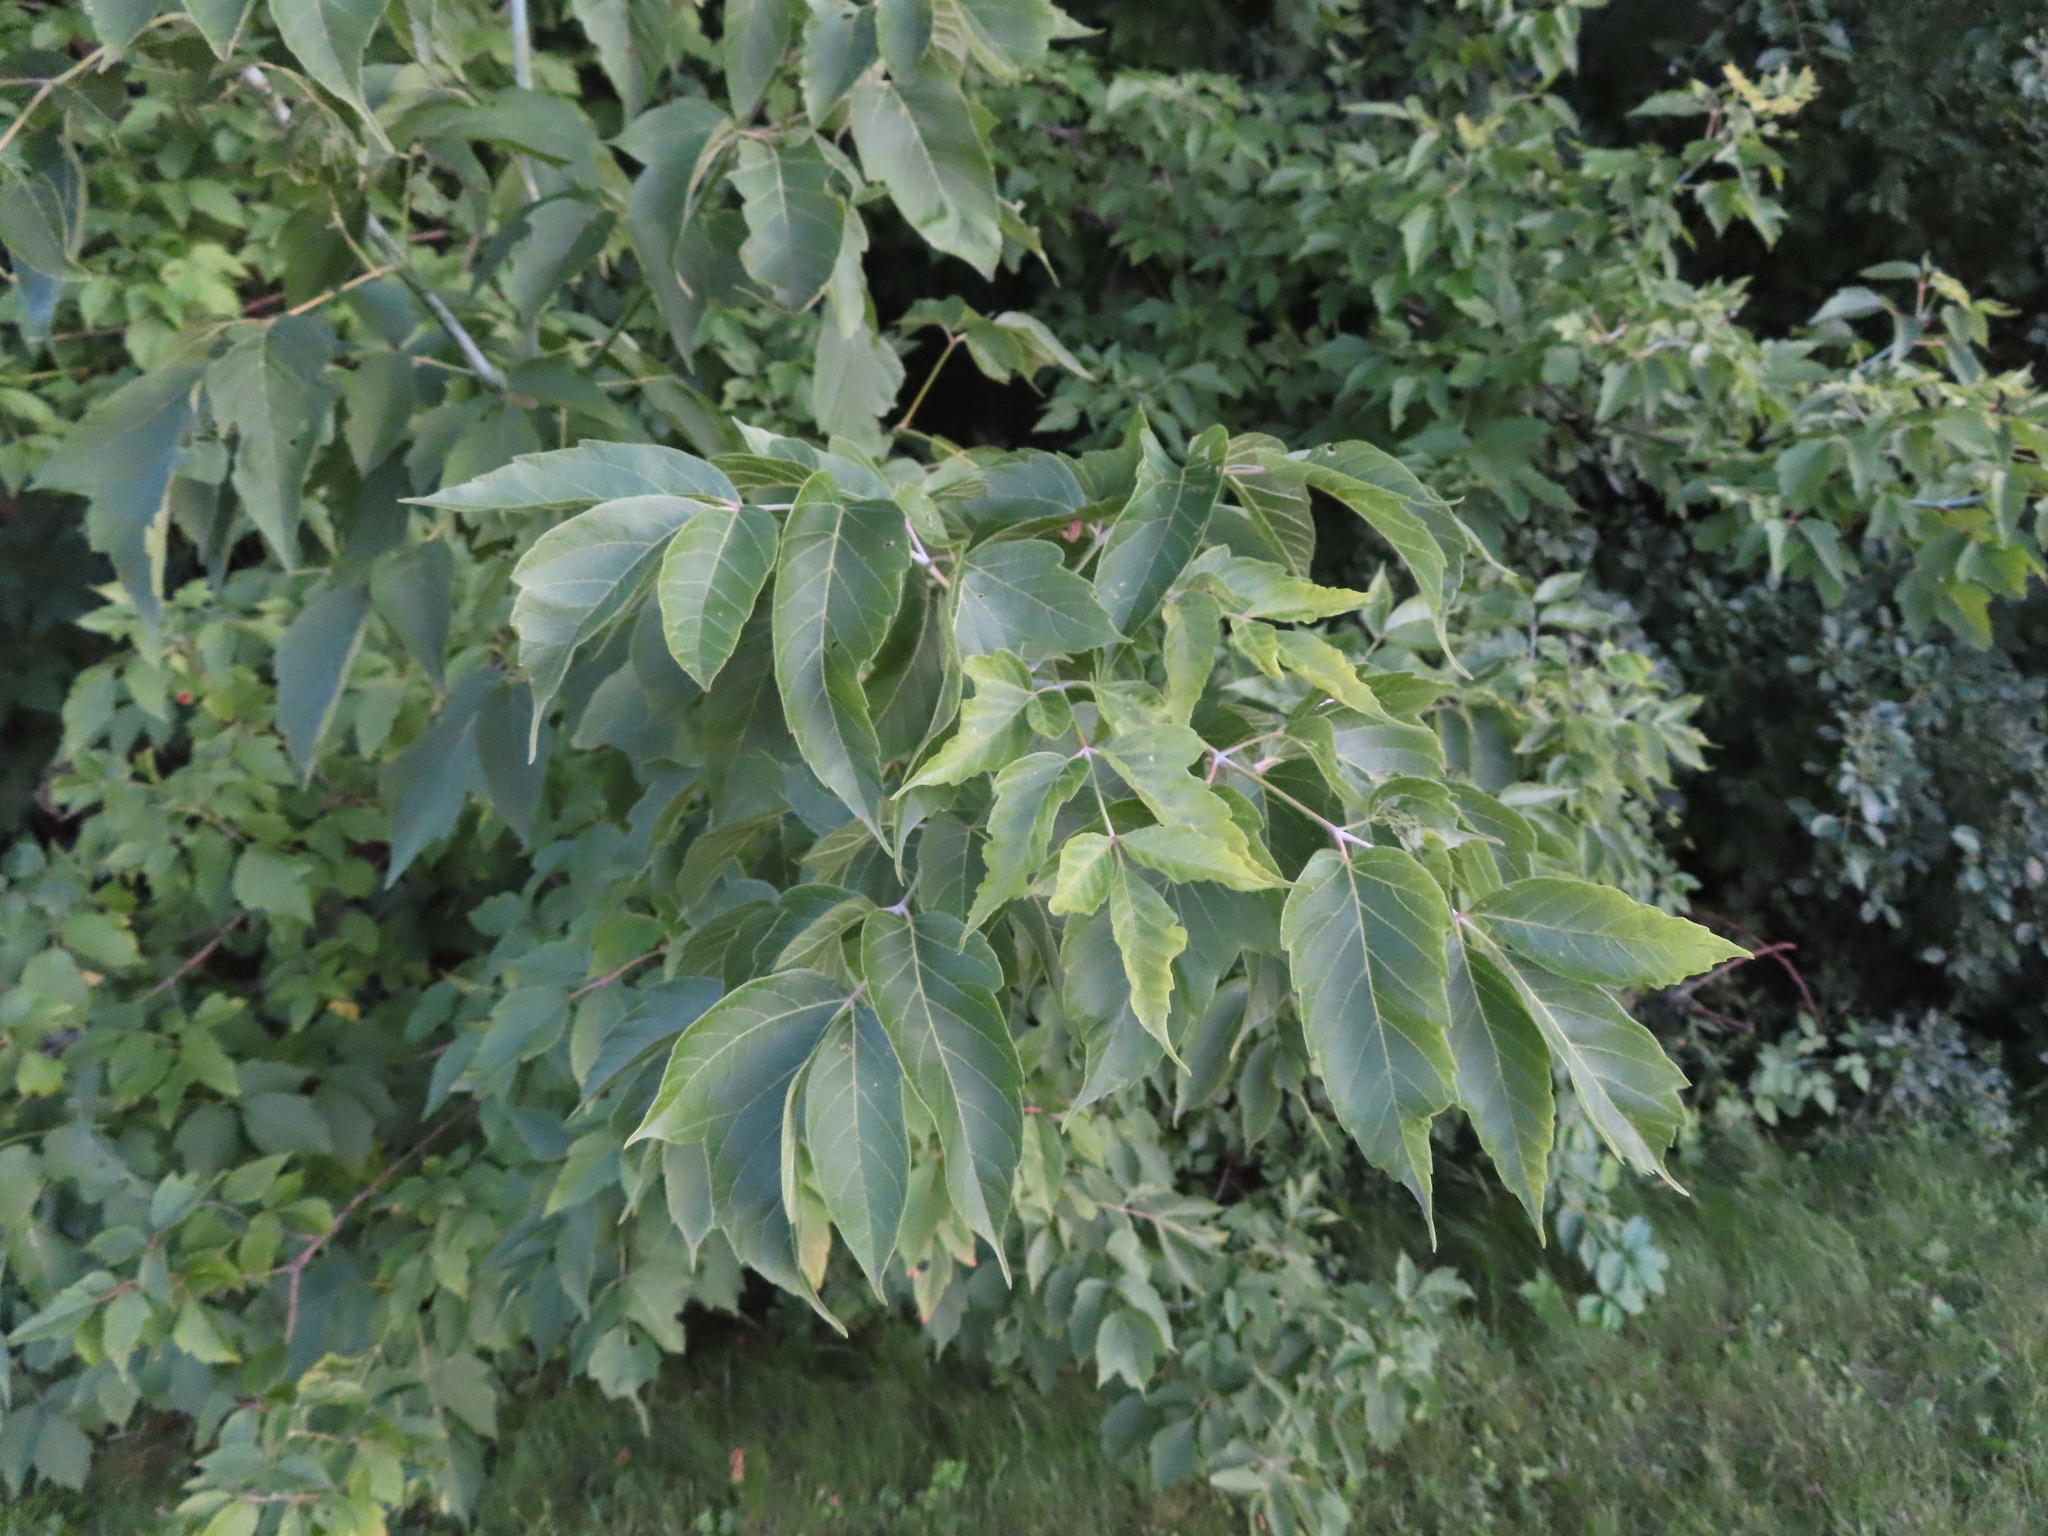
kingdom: Plantae
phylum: Tracheophyta
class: Magnoliopsida
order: Sapindales
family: Sapindaceae
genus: Acer
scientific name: Acer negundo
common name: Ashleaf maple
